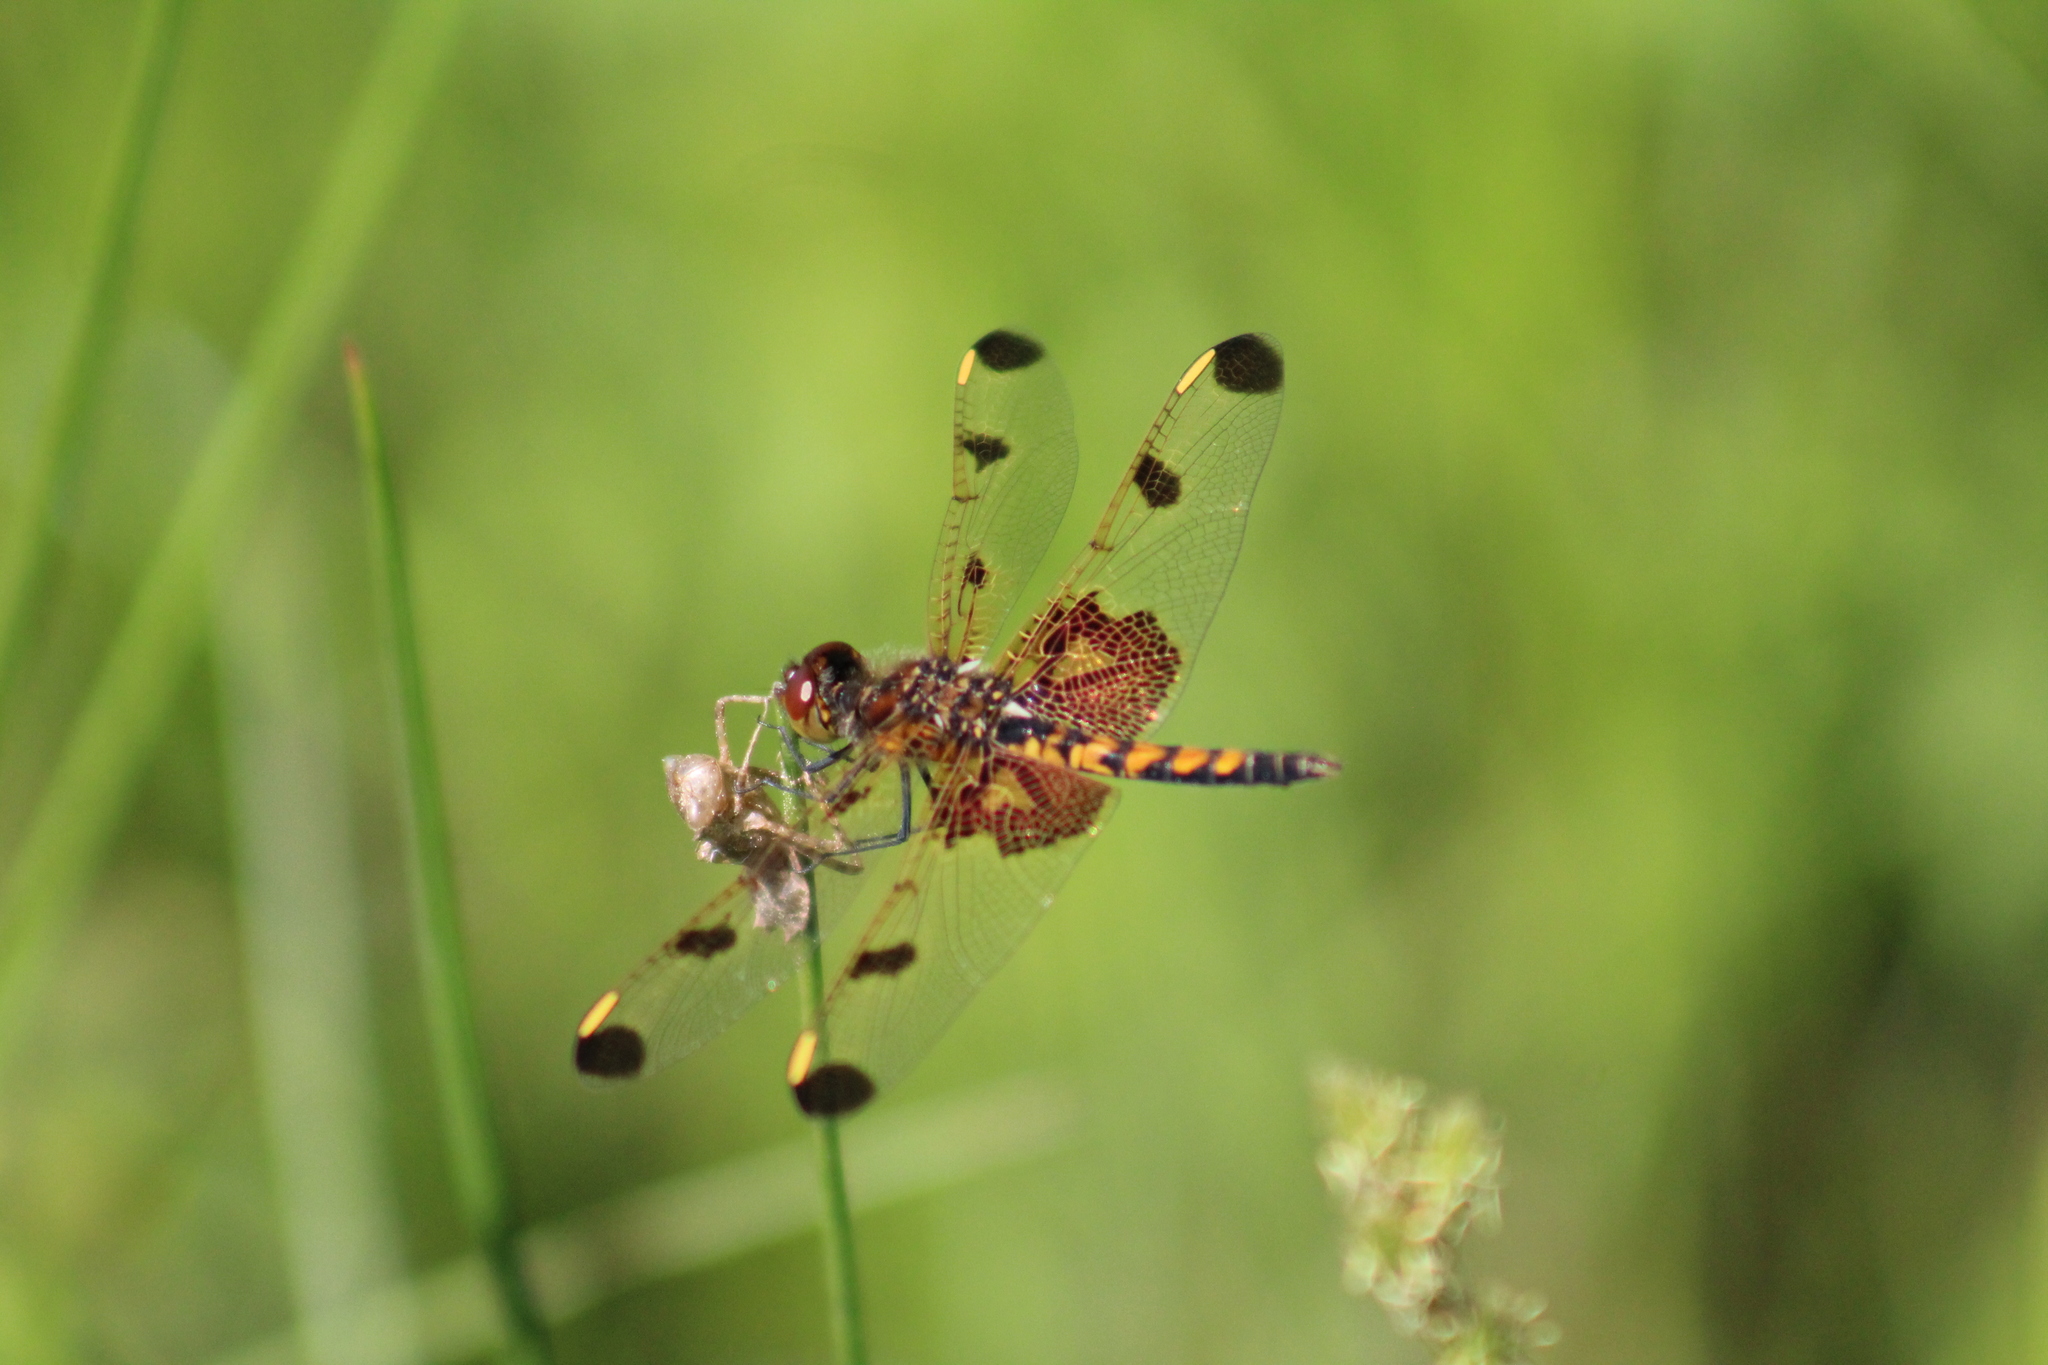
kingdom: Animalia
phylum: Arthropoda
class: Insecta
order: Odonata
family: Libellulidae
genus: Celithemis
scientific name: Celithemis elisa
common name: Calico pennant
